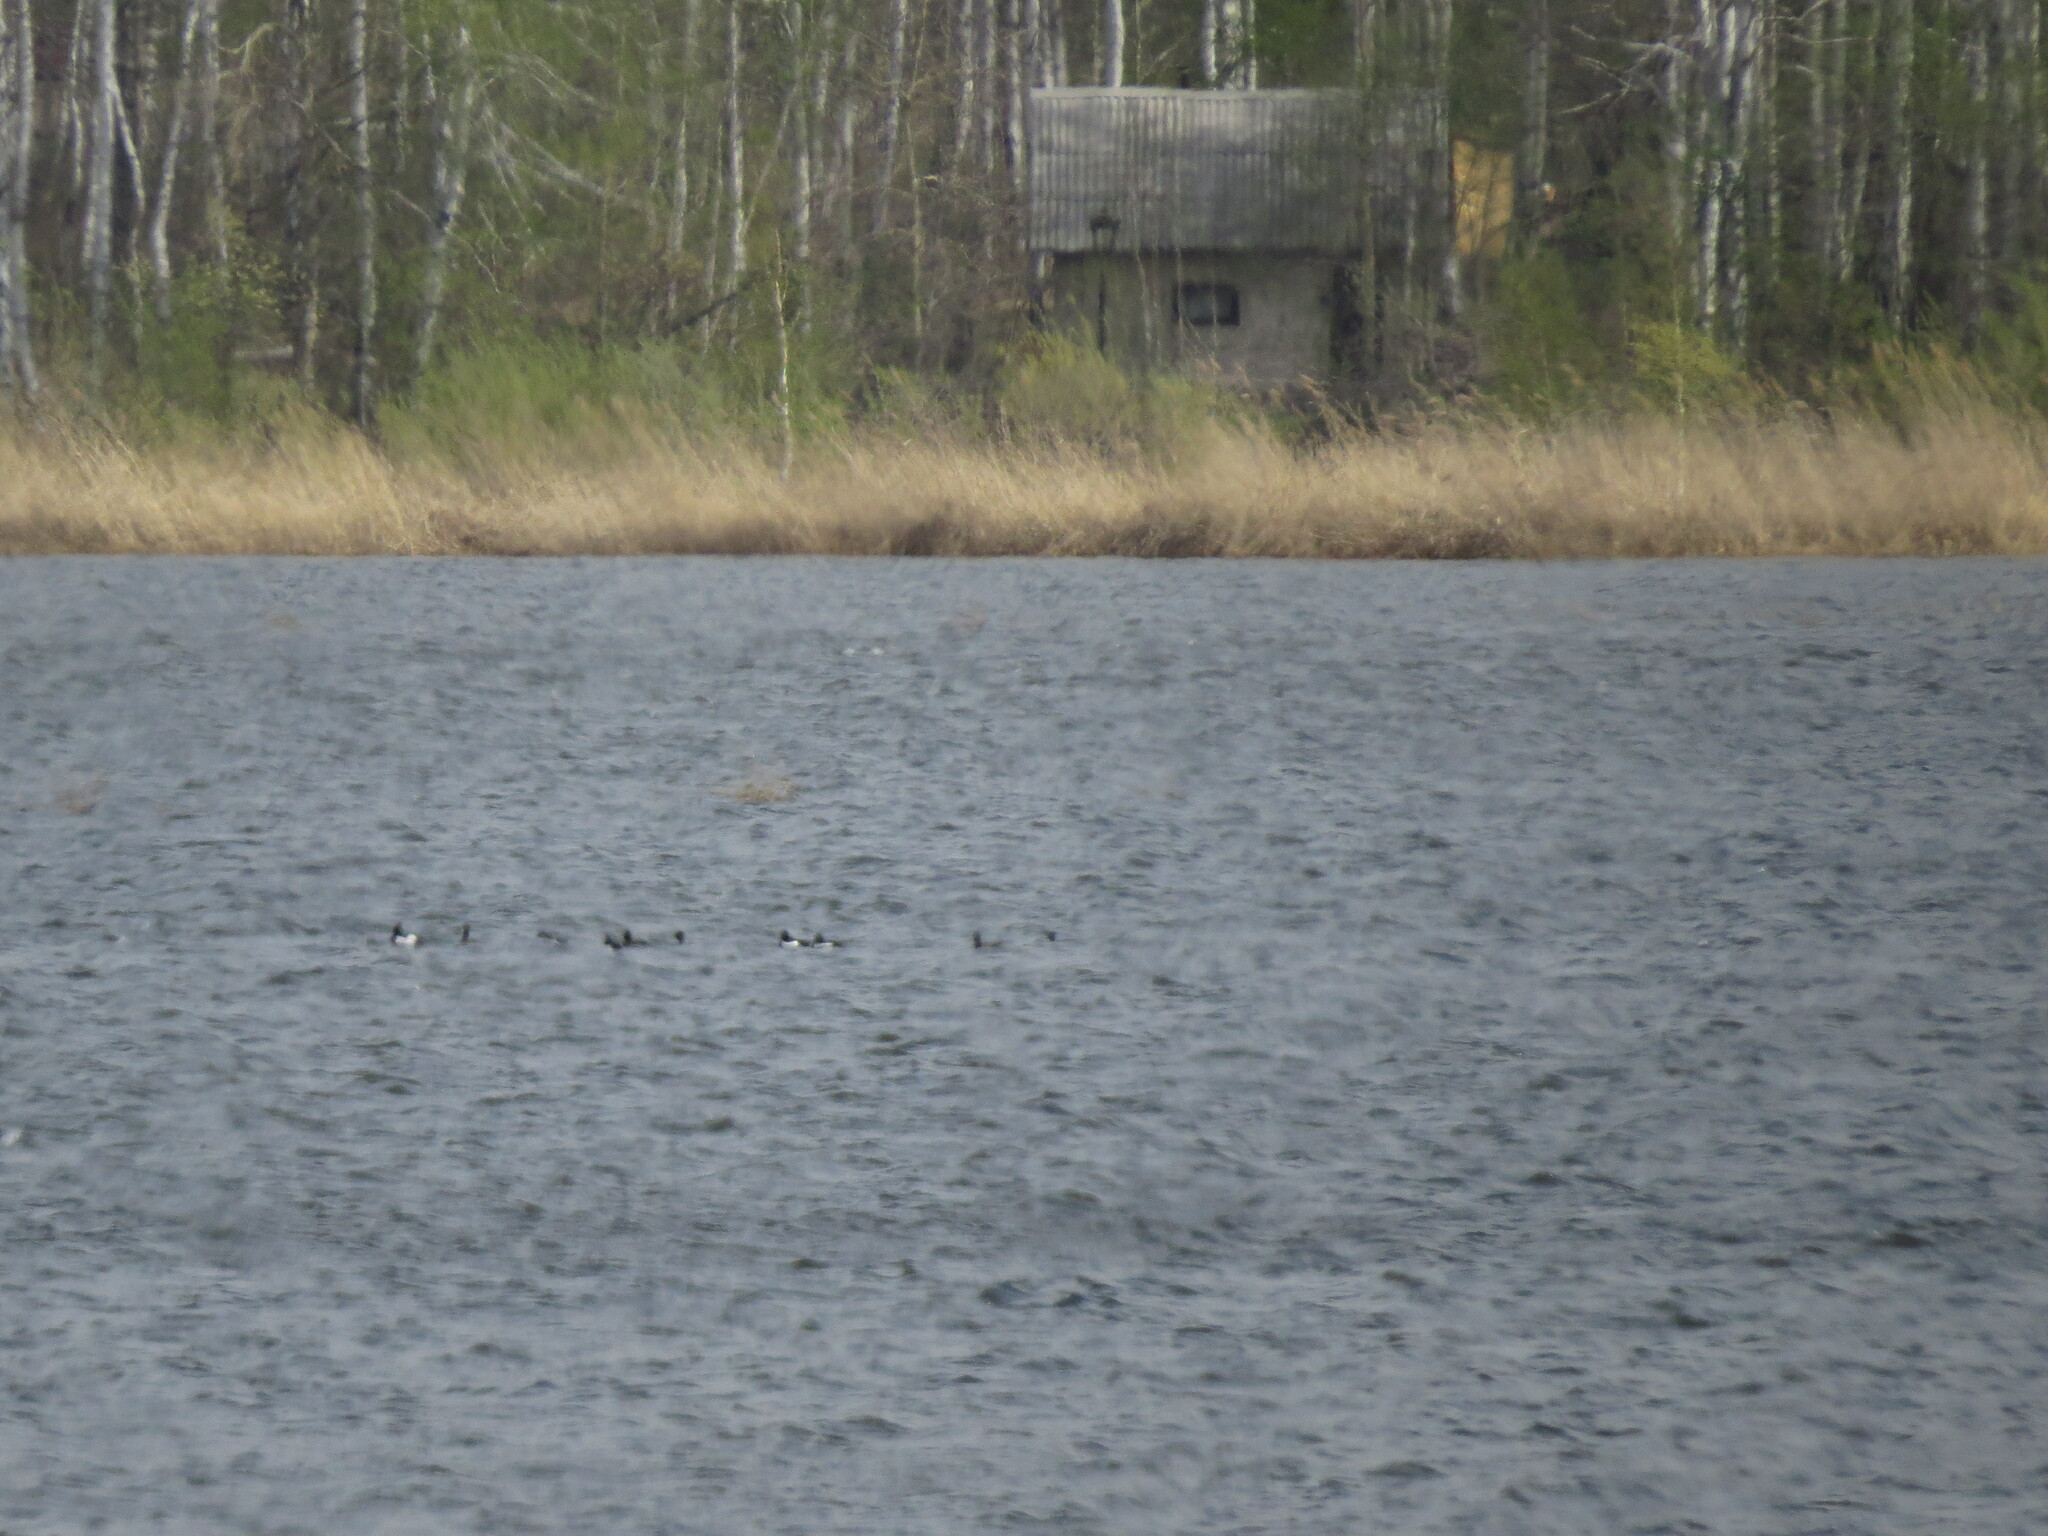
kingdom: Animalia
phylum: Chordata
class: Aves
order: Anseriformes
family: Anatidae
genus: Aythya
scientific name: Aythya fuligula
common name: Tufted duck
